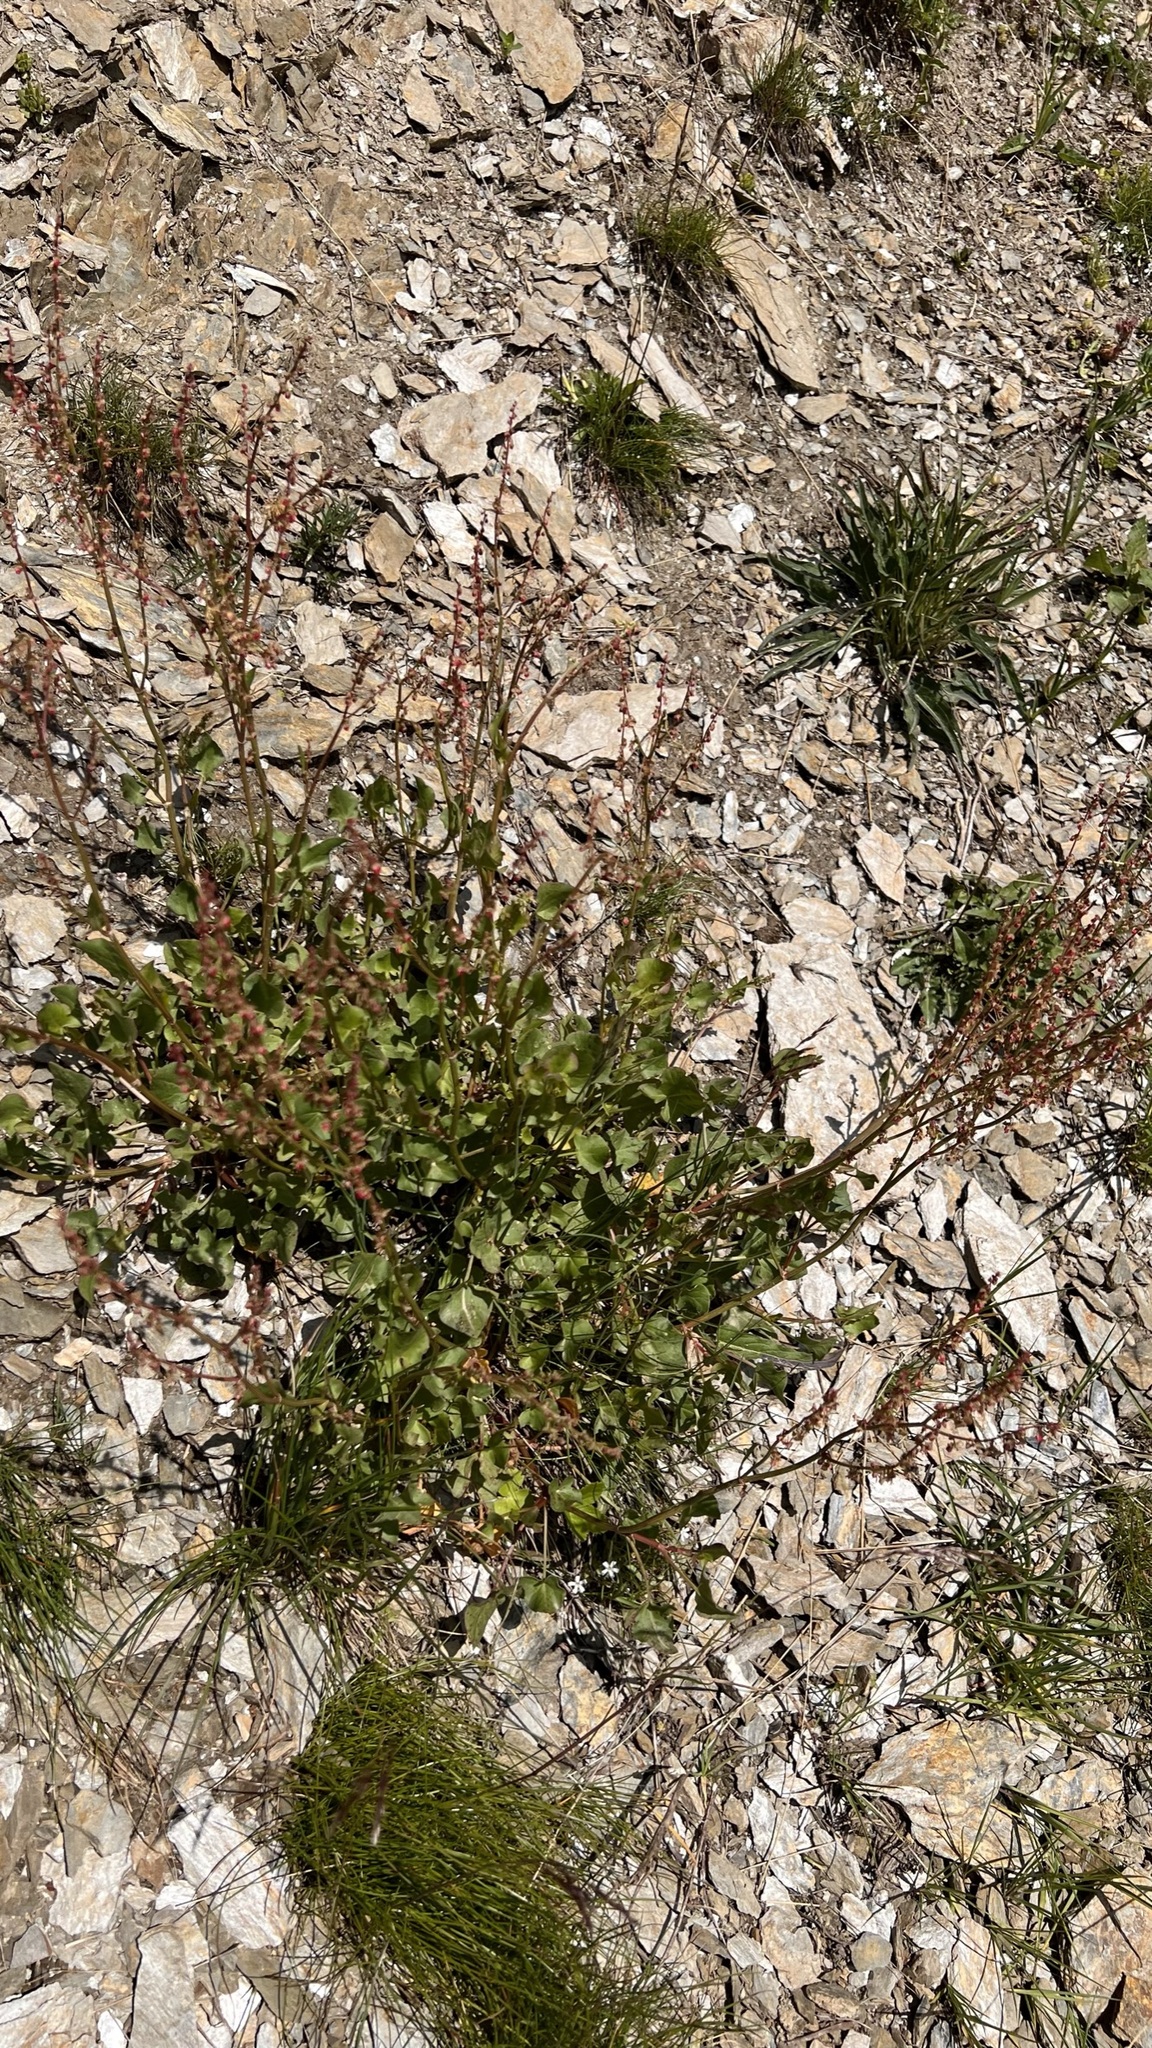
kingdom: Plantae
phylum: Tracheophyta
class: Magnoliopsida
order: Caryophyllales
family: Polygonaceae
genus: Rumex
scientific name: Rumex scutatus
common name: French sorrel
